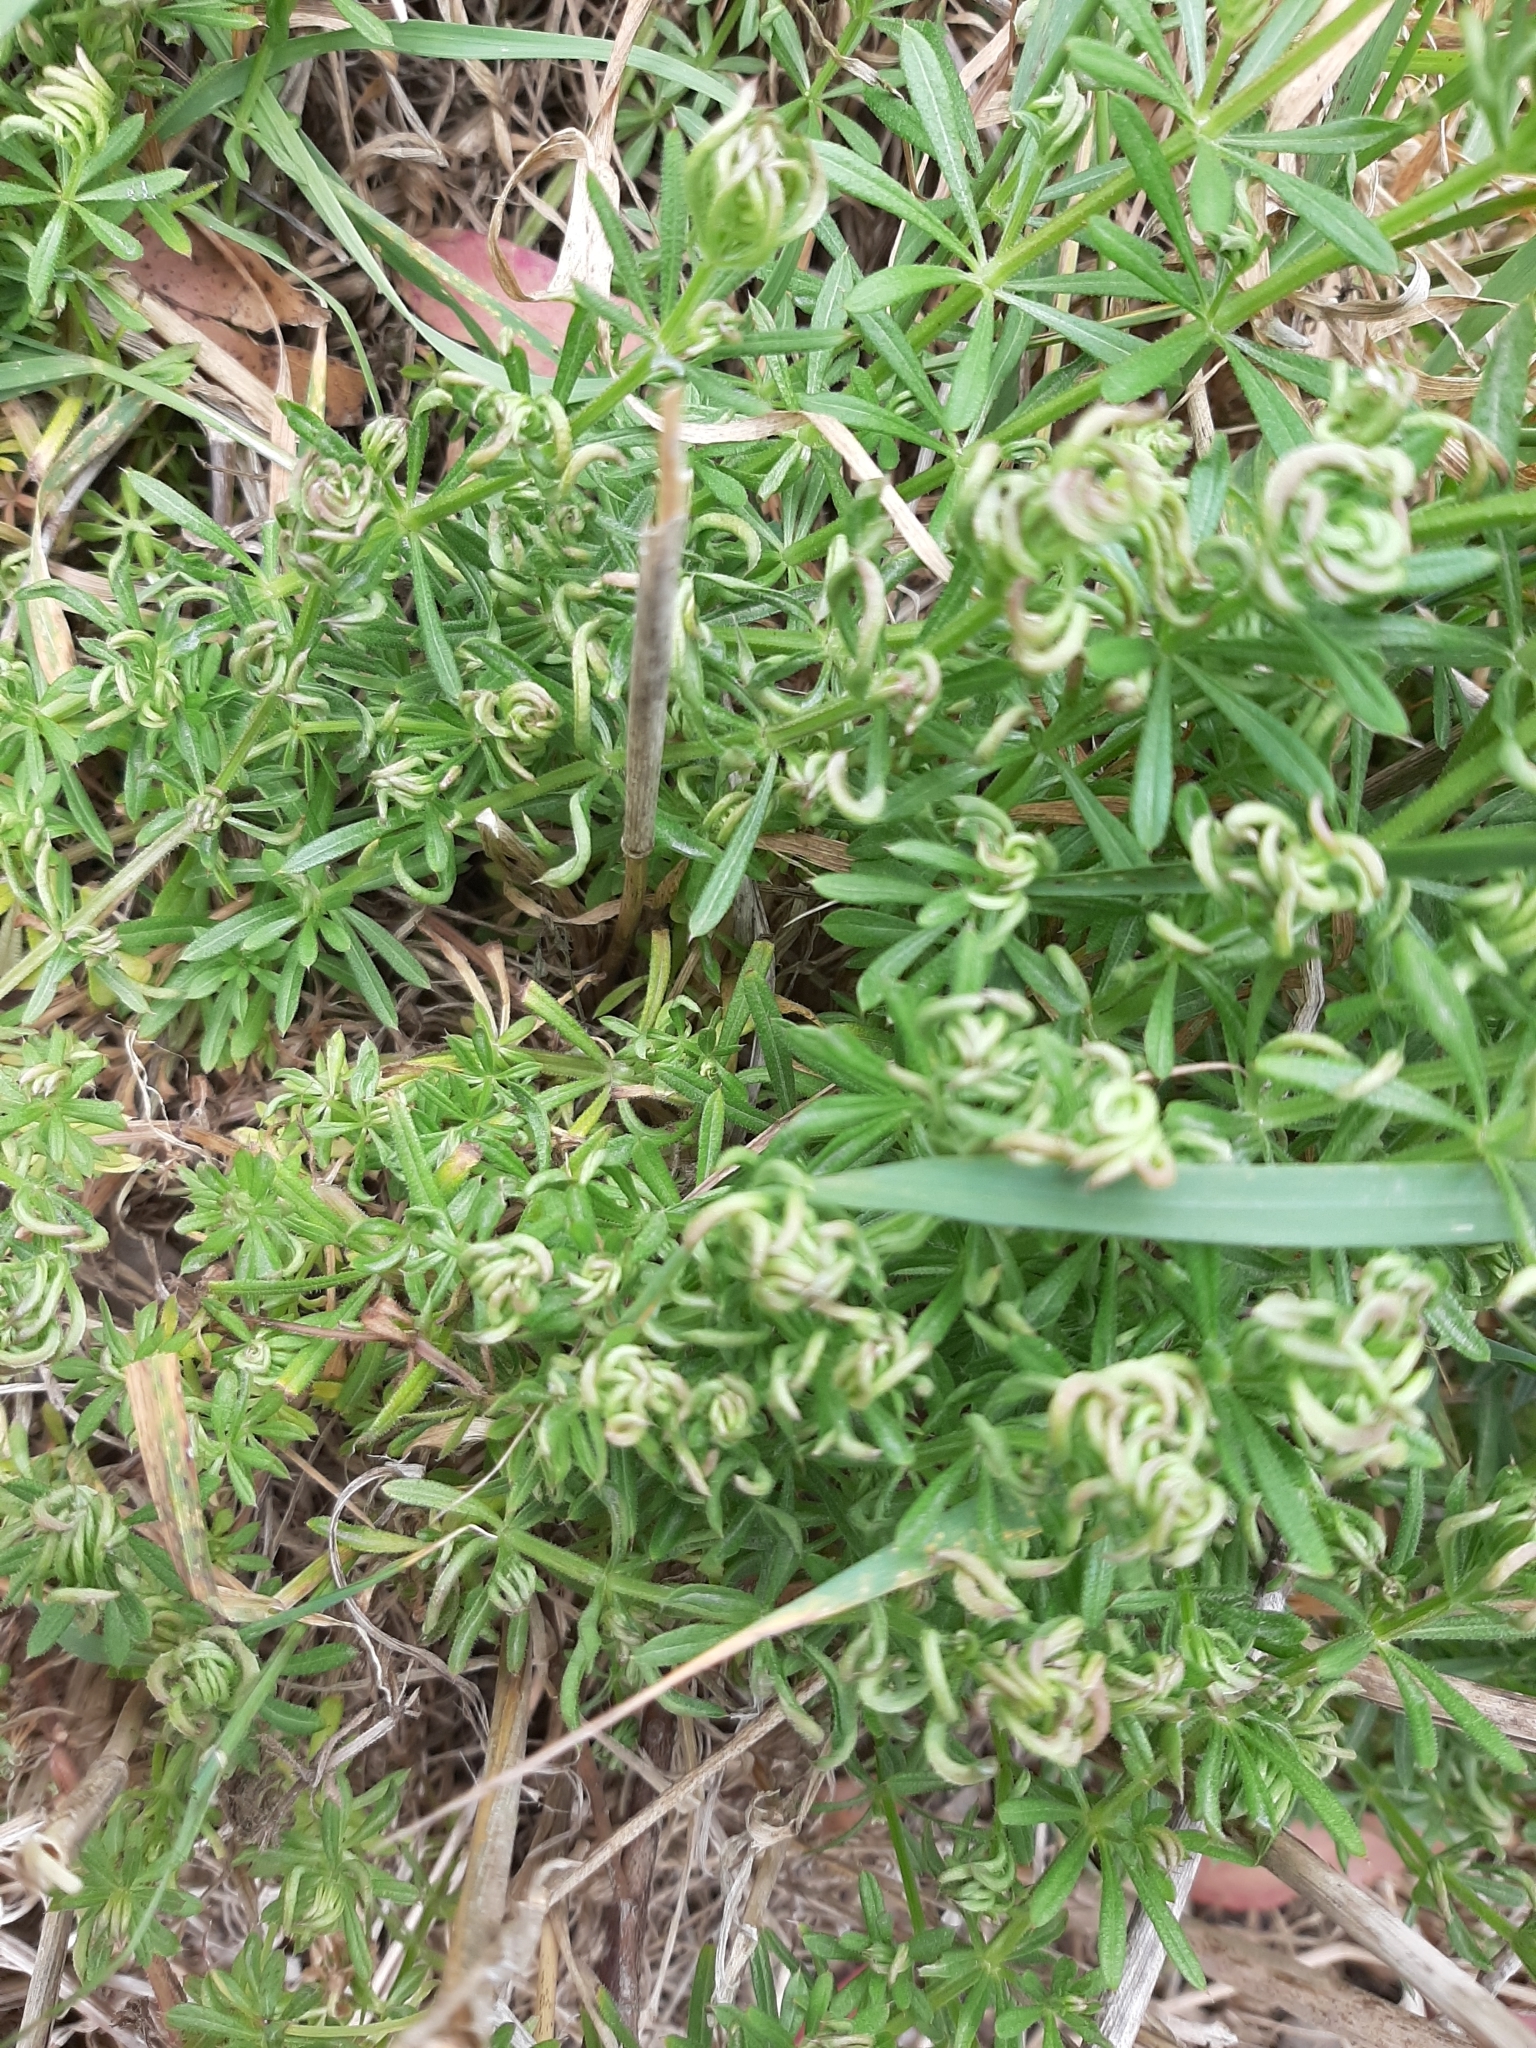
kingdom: Animalia
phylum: Arthropoda
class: Arachnida
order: Trombidiformes
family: Eriophyidae
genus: Cecidophyes
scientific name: Cecidophyes rouhollahi
